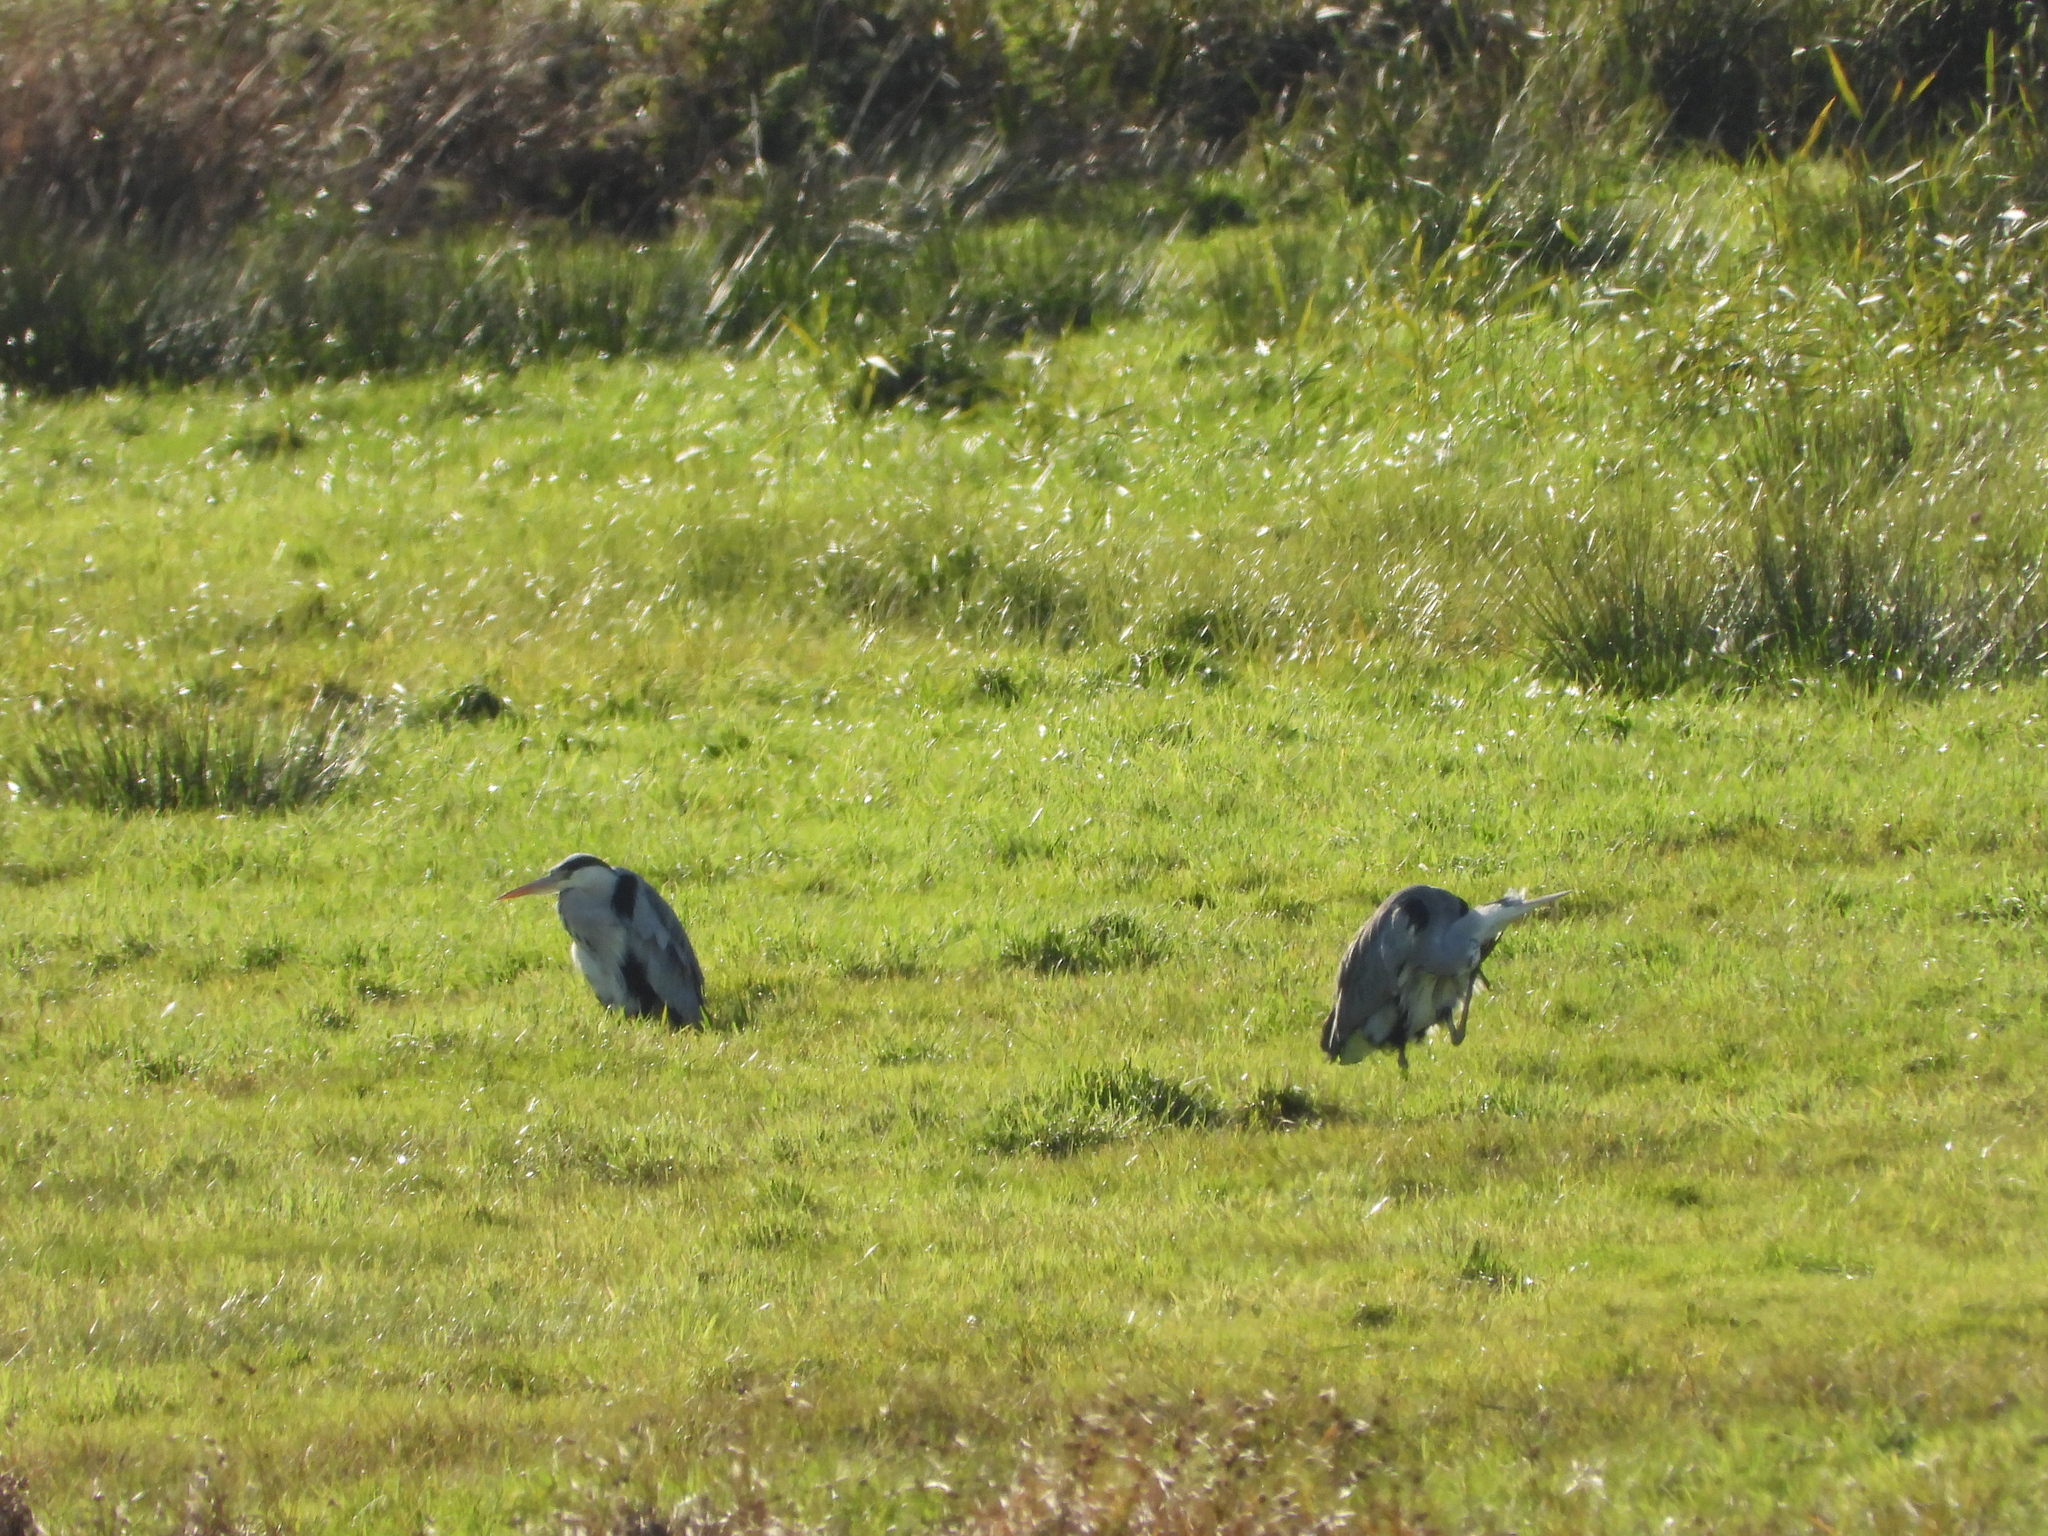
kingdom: Animalia
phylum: Chordata
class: Aves
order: Pelecaniformes
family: Ardeidae
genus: Ardea
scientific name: Ardea cinerea
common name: Grey heron
